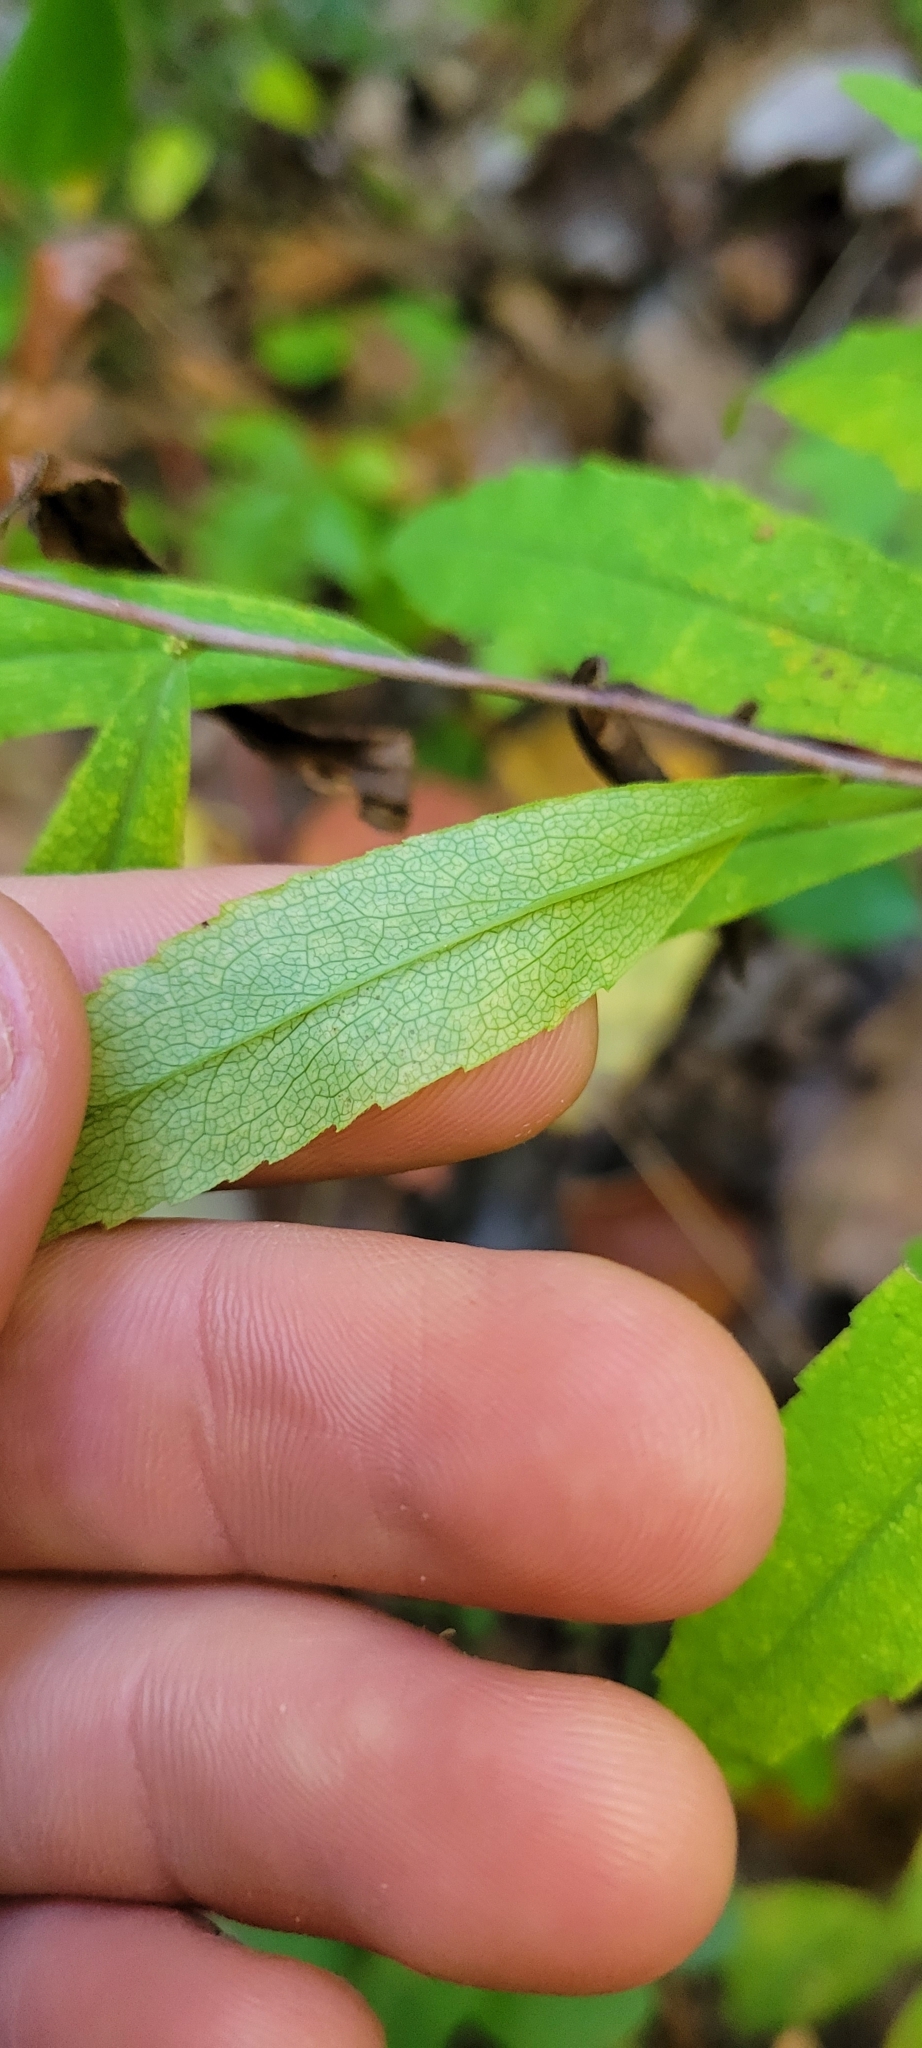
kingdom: Plantae
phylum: Tracheophyta
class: Magnoliopsida
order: Asterales
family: Asteraceae
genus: Solidago
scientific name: Solidago caesia
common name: Woodland goldenrod
